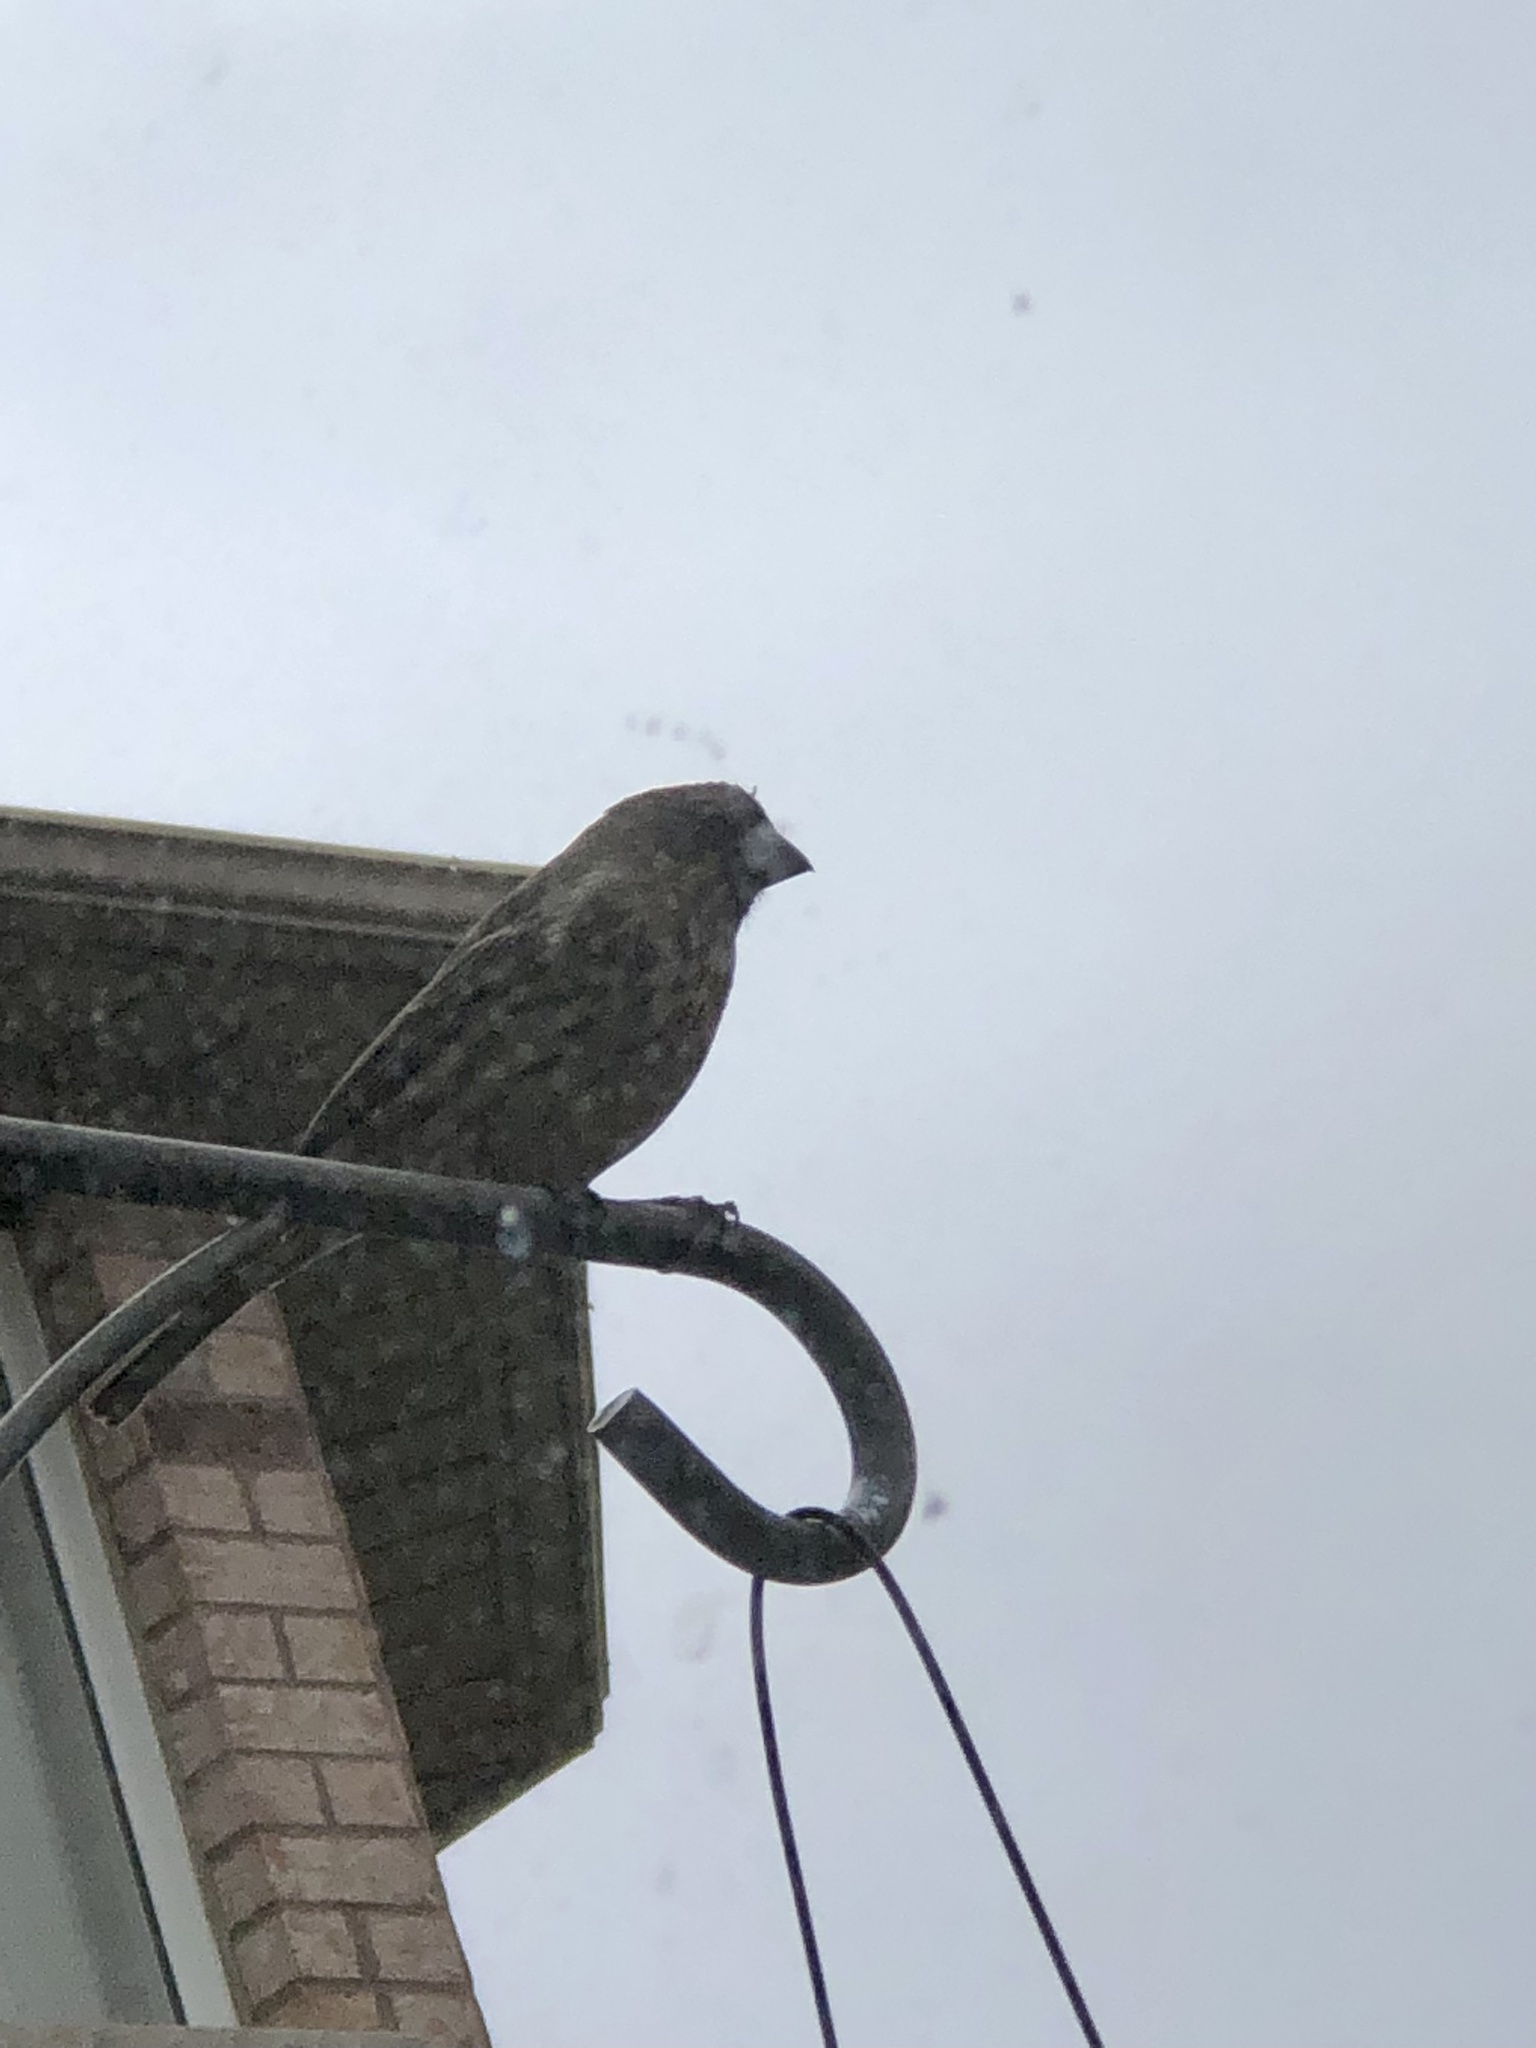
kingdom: Animalia
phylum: Chordata
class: Aves
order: Passeriformes
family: Fringillidae
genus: Haemorhous
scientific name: Haemorhous mexicanus
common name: House finch
